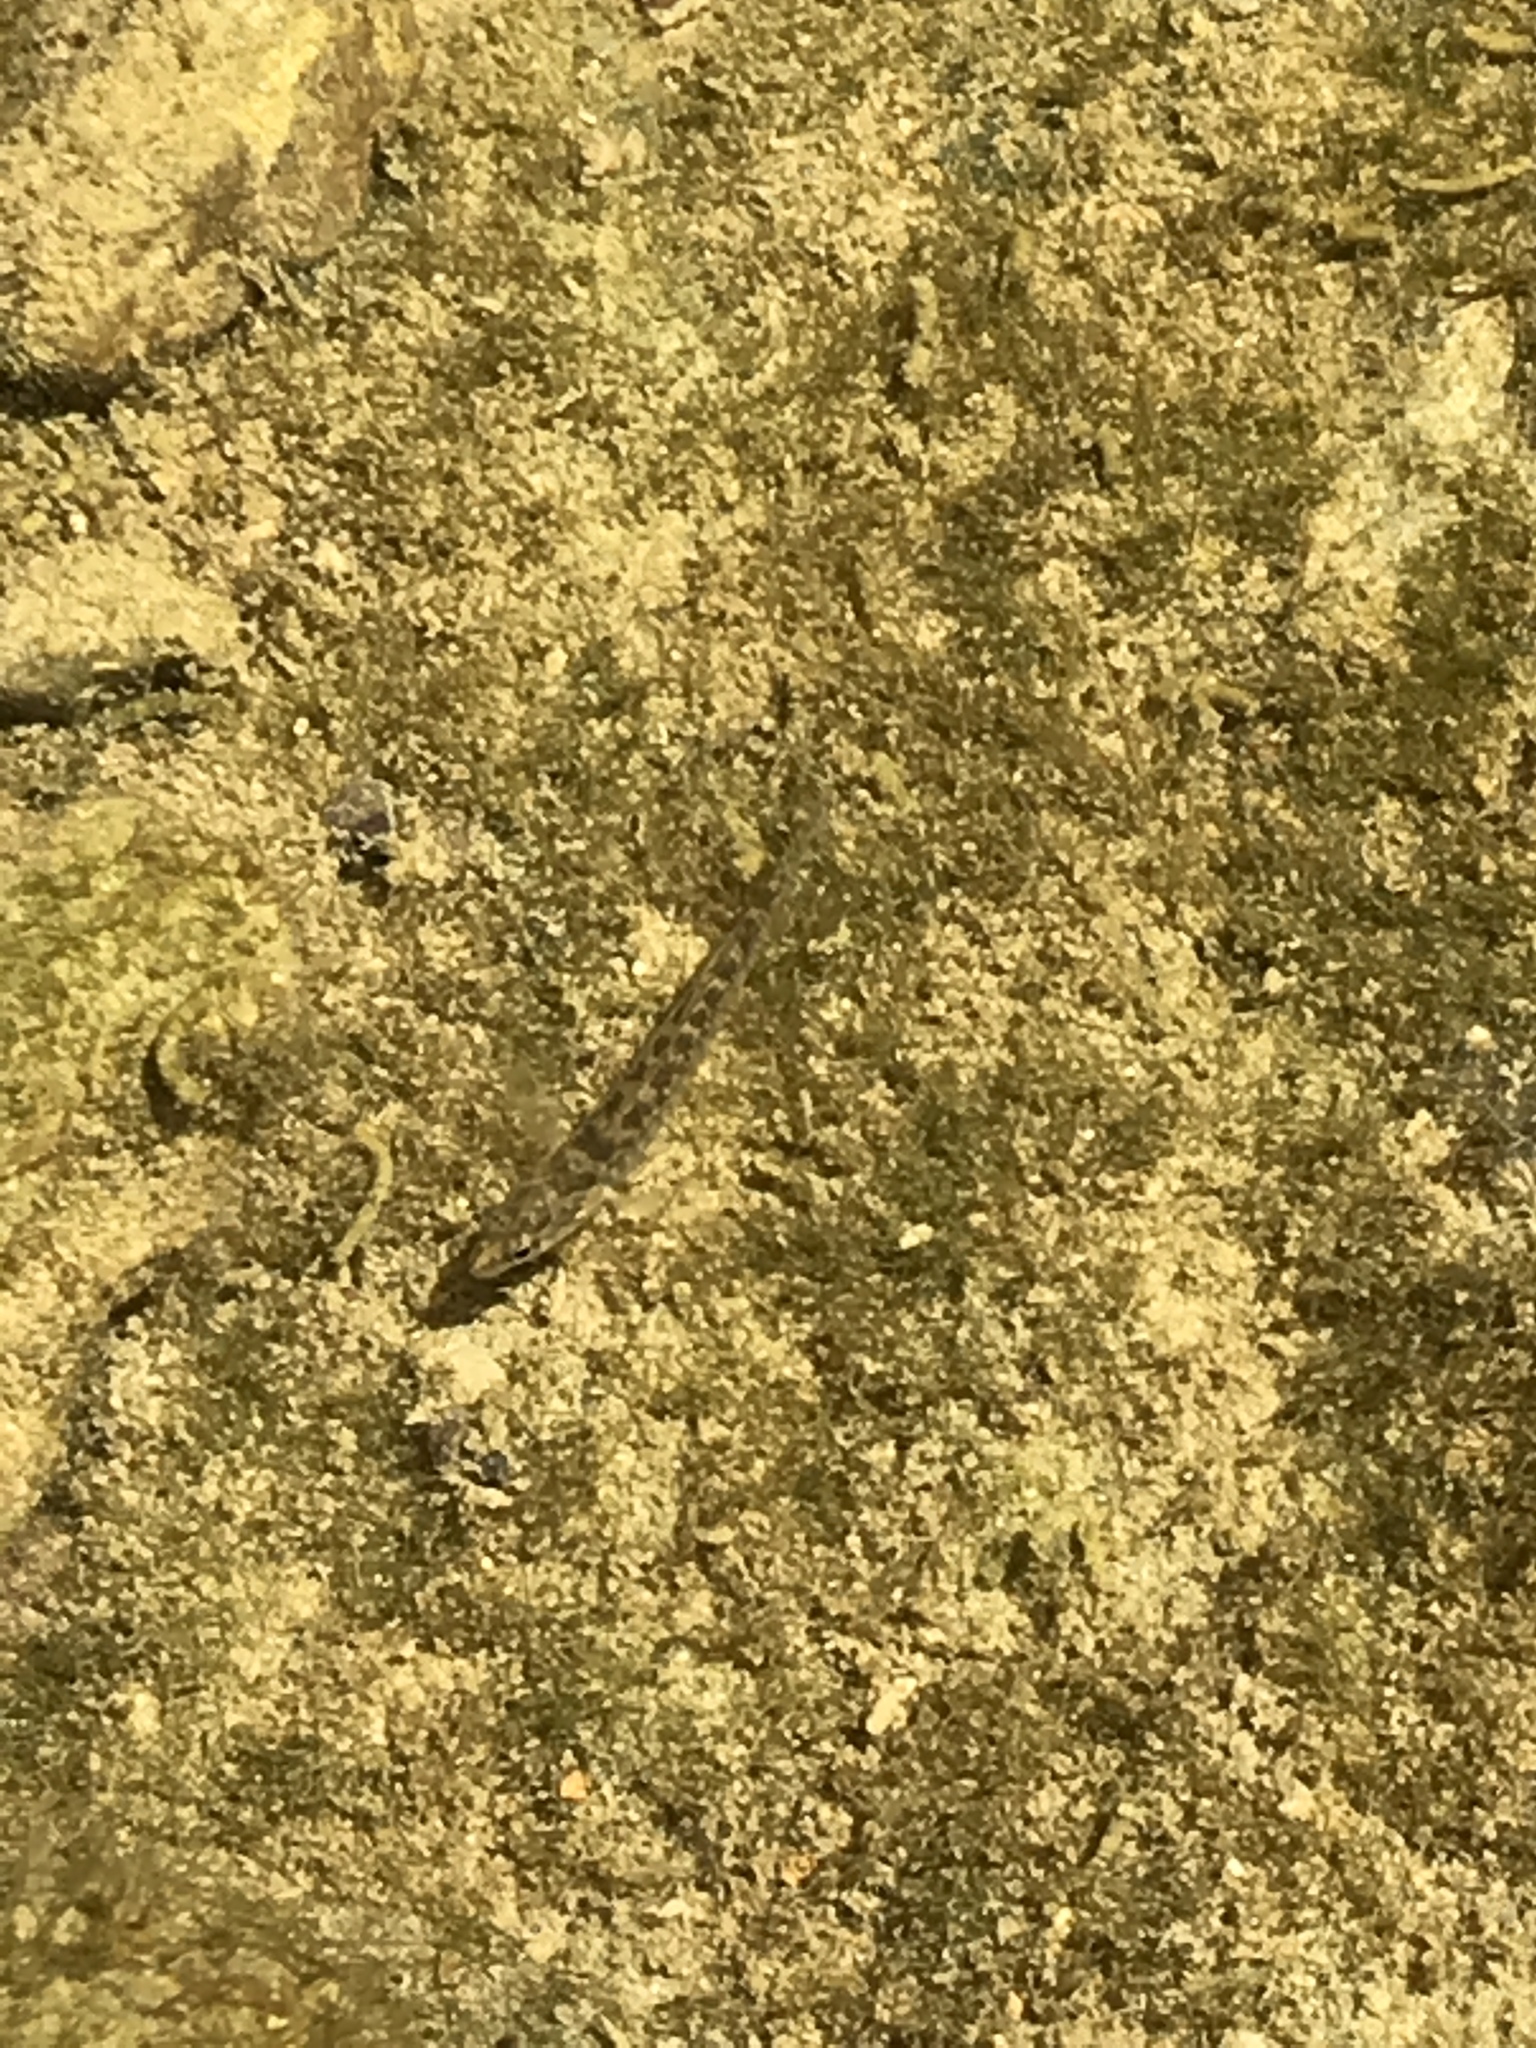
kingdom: Animalia
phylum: Chordata
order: Perciformes
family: Percidae
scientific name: Percidae
